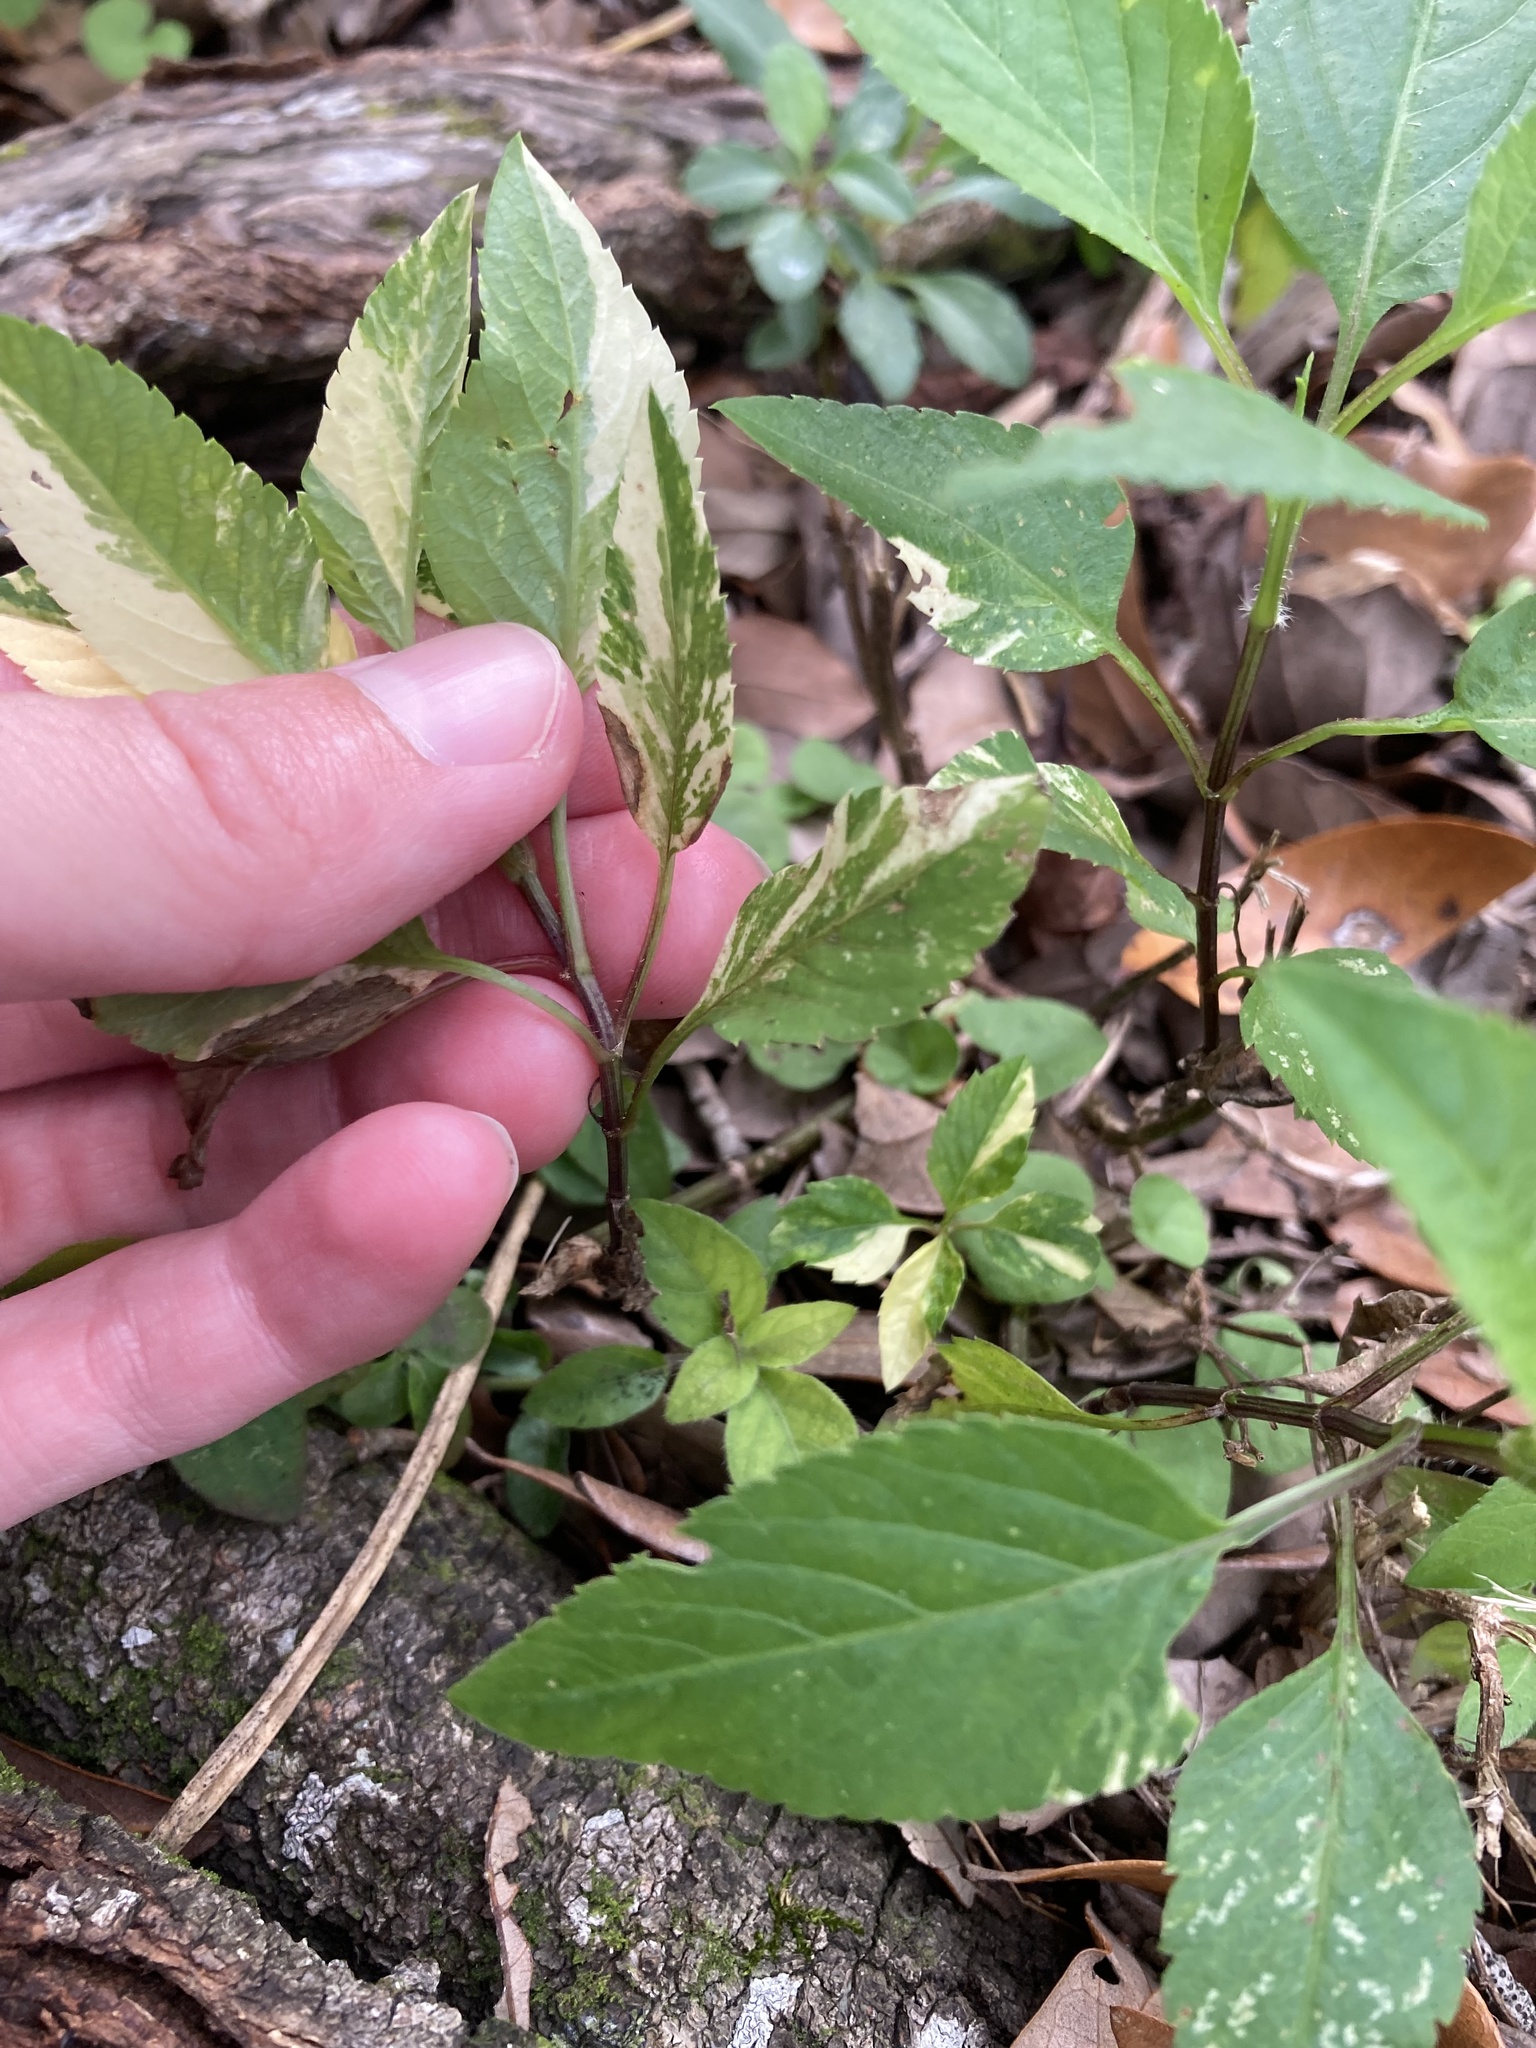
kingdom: Plantae
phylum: Tracheophyta
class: Magnoliopsida
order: Asterales
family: Asteraceae
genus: Bidens
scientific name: Bidens alba
